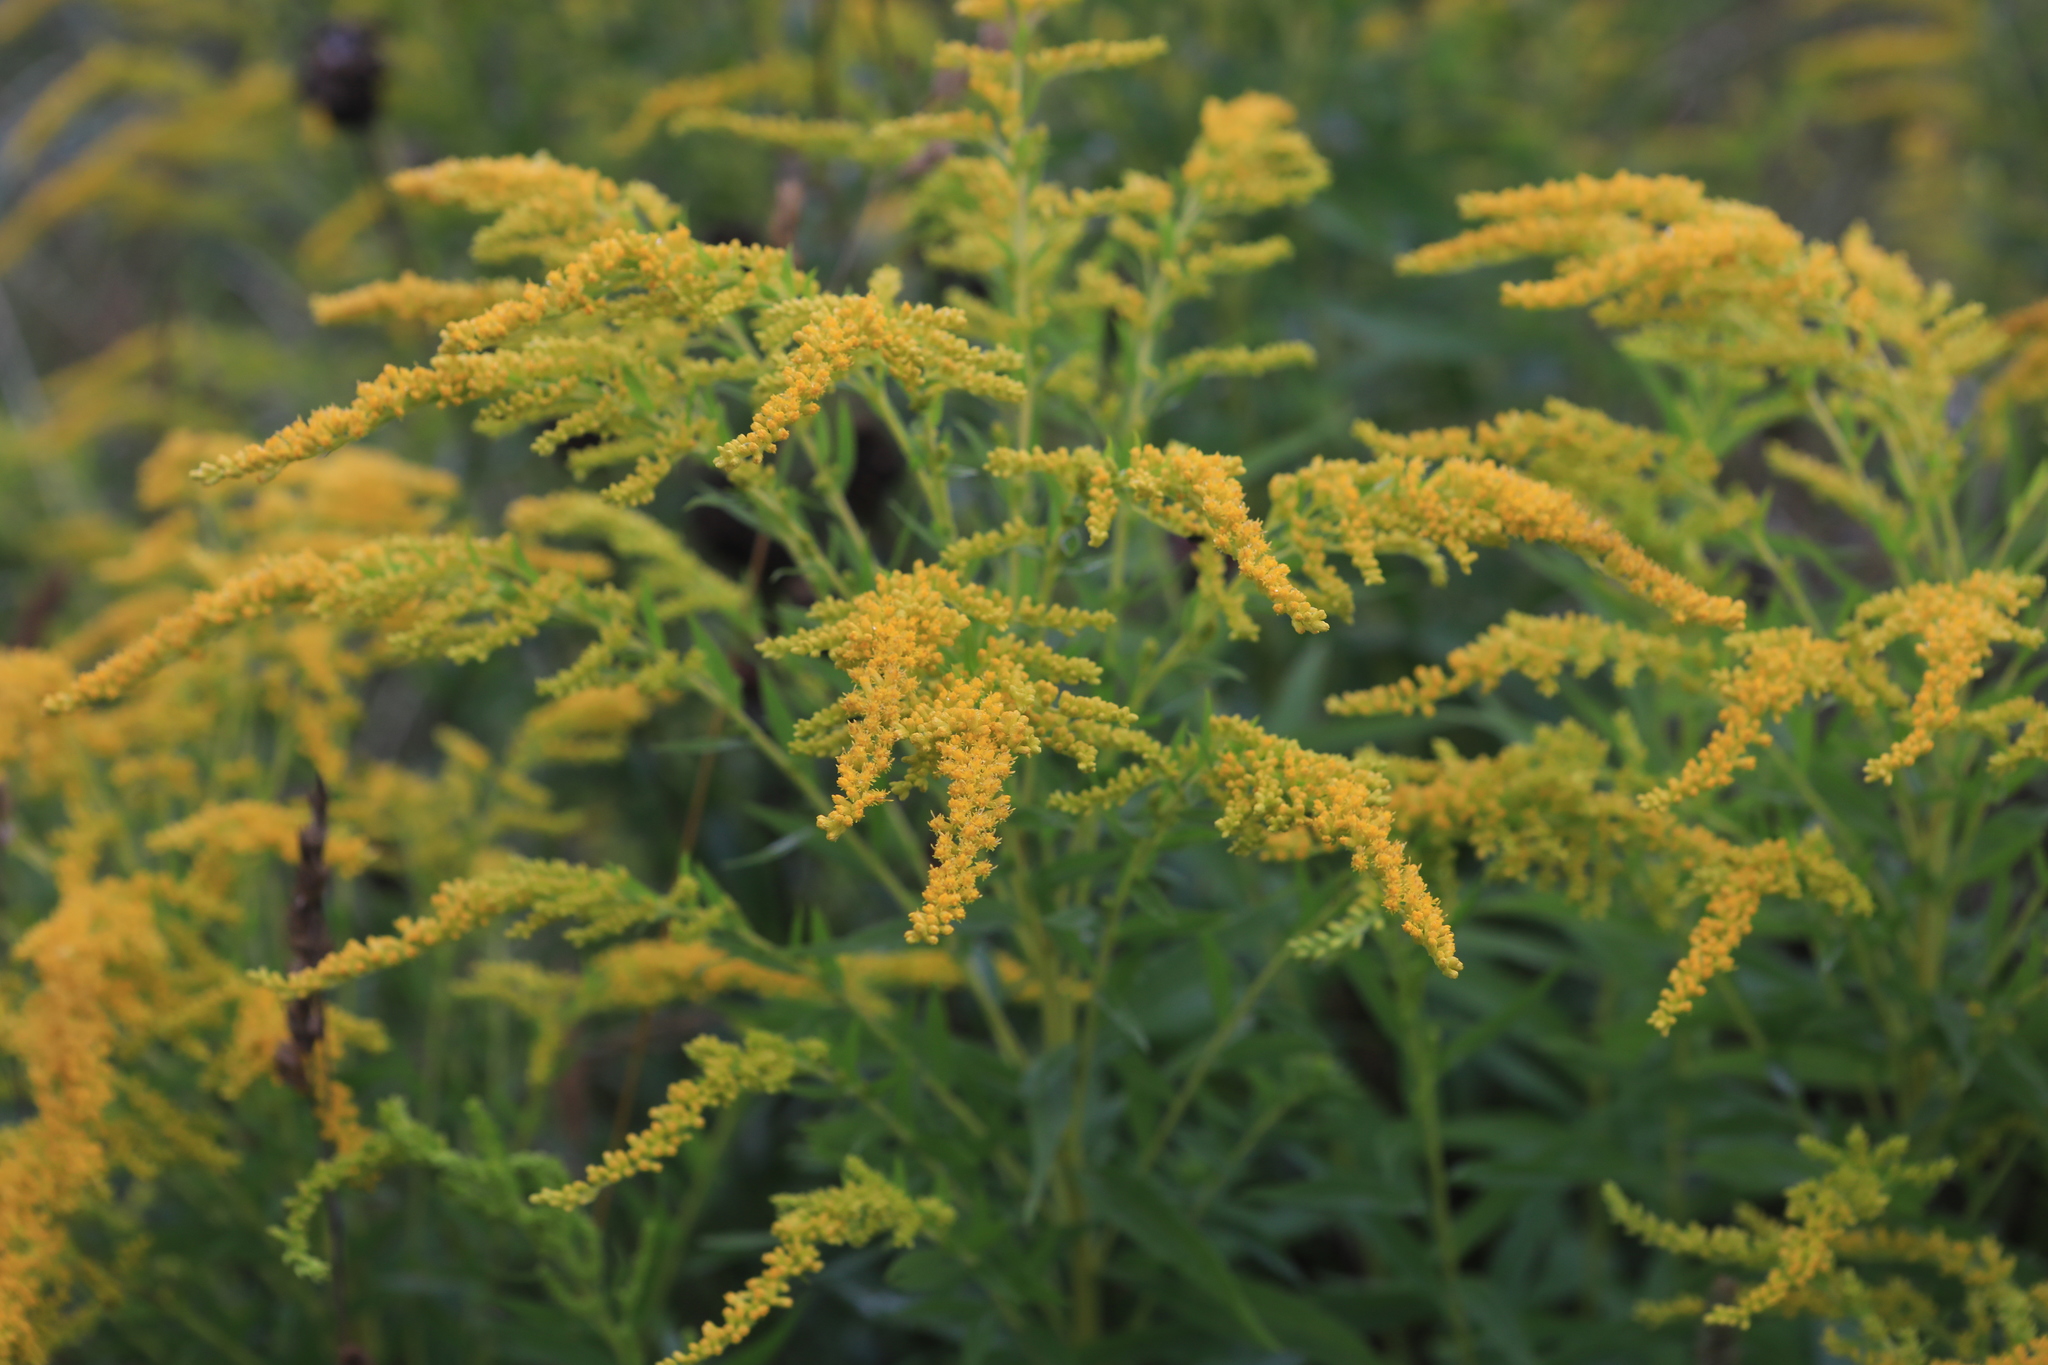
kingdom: Plantae
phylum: Tracheophyta
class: Magnoliopsida
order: Asterales
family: Asteraceae
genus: Solidago
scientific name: Solidago canadensis
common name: Canada goldenrod
